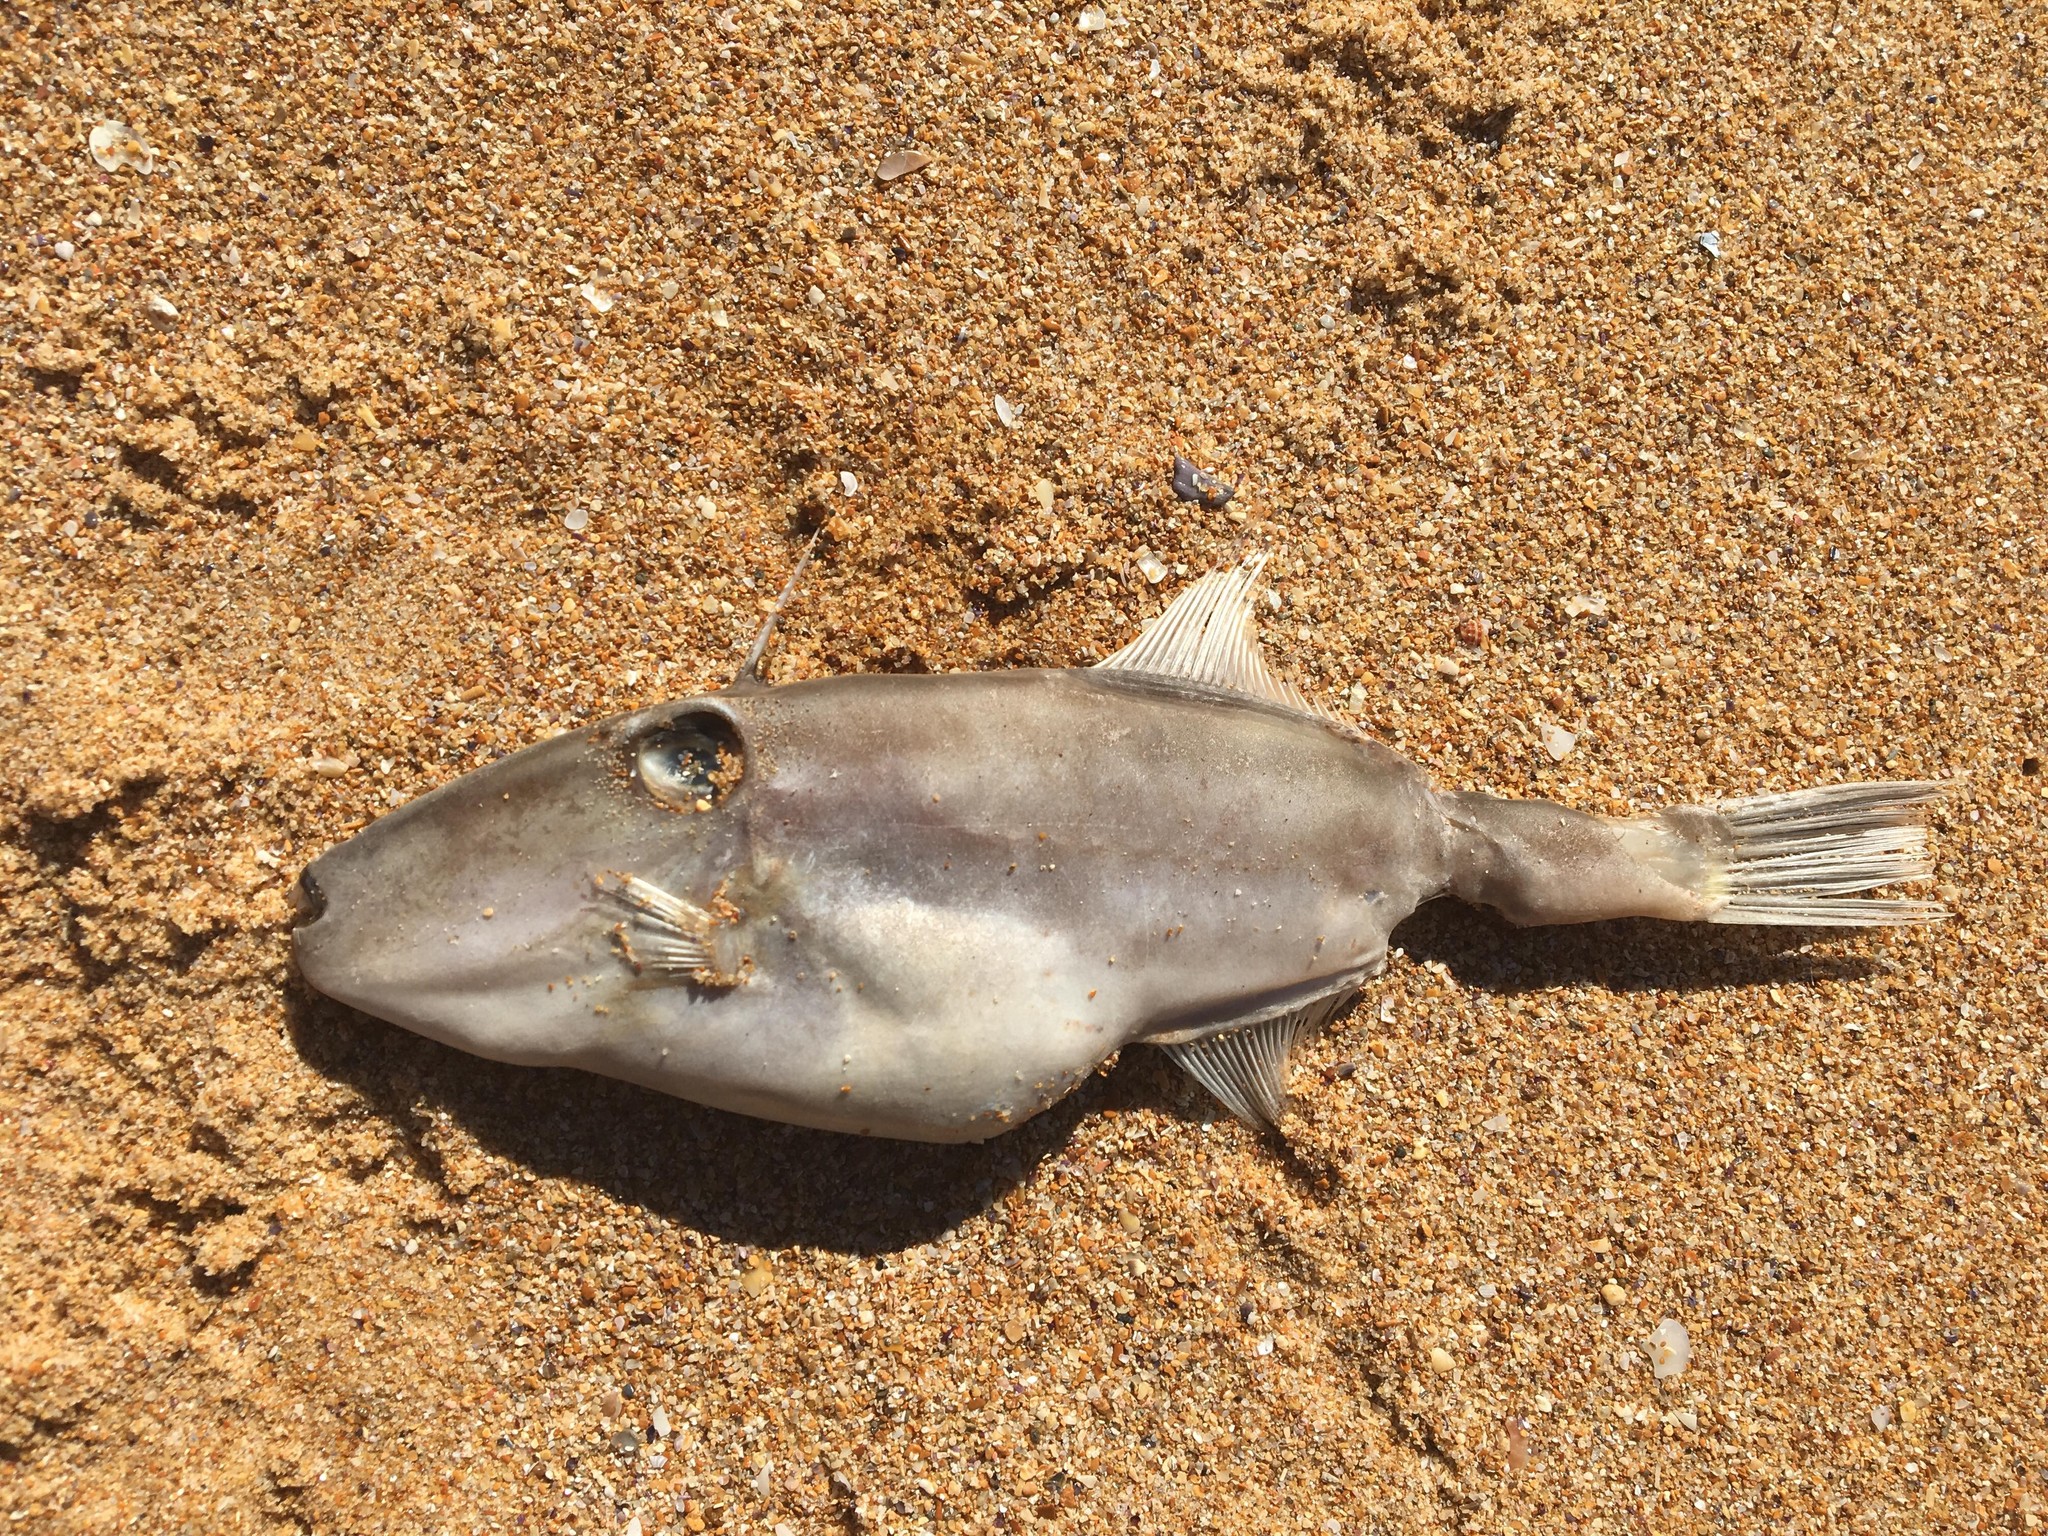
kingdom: Animalia
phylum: Chordata
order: Tetraodontiformes
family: Monacanthidae
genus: Nelusetta
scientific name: Nelusetta ayraud
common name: Chinaman leatherjacket
